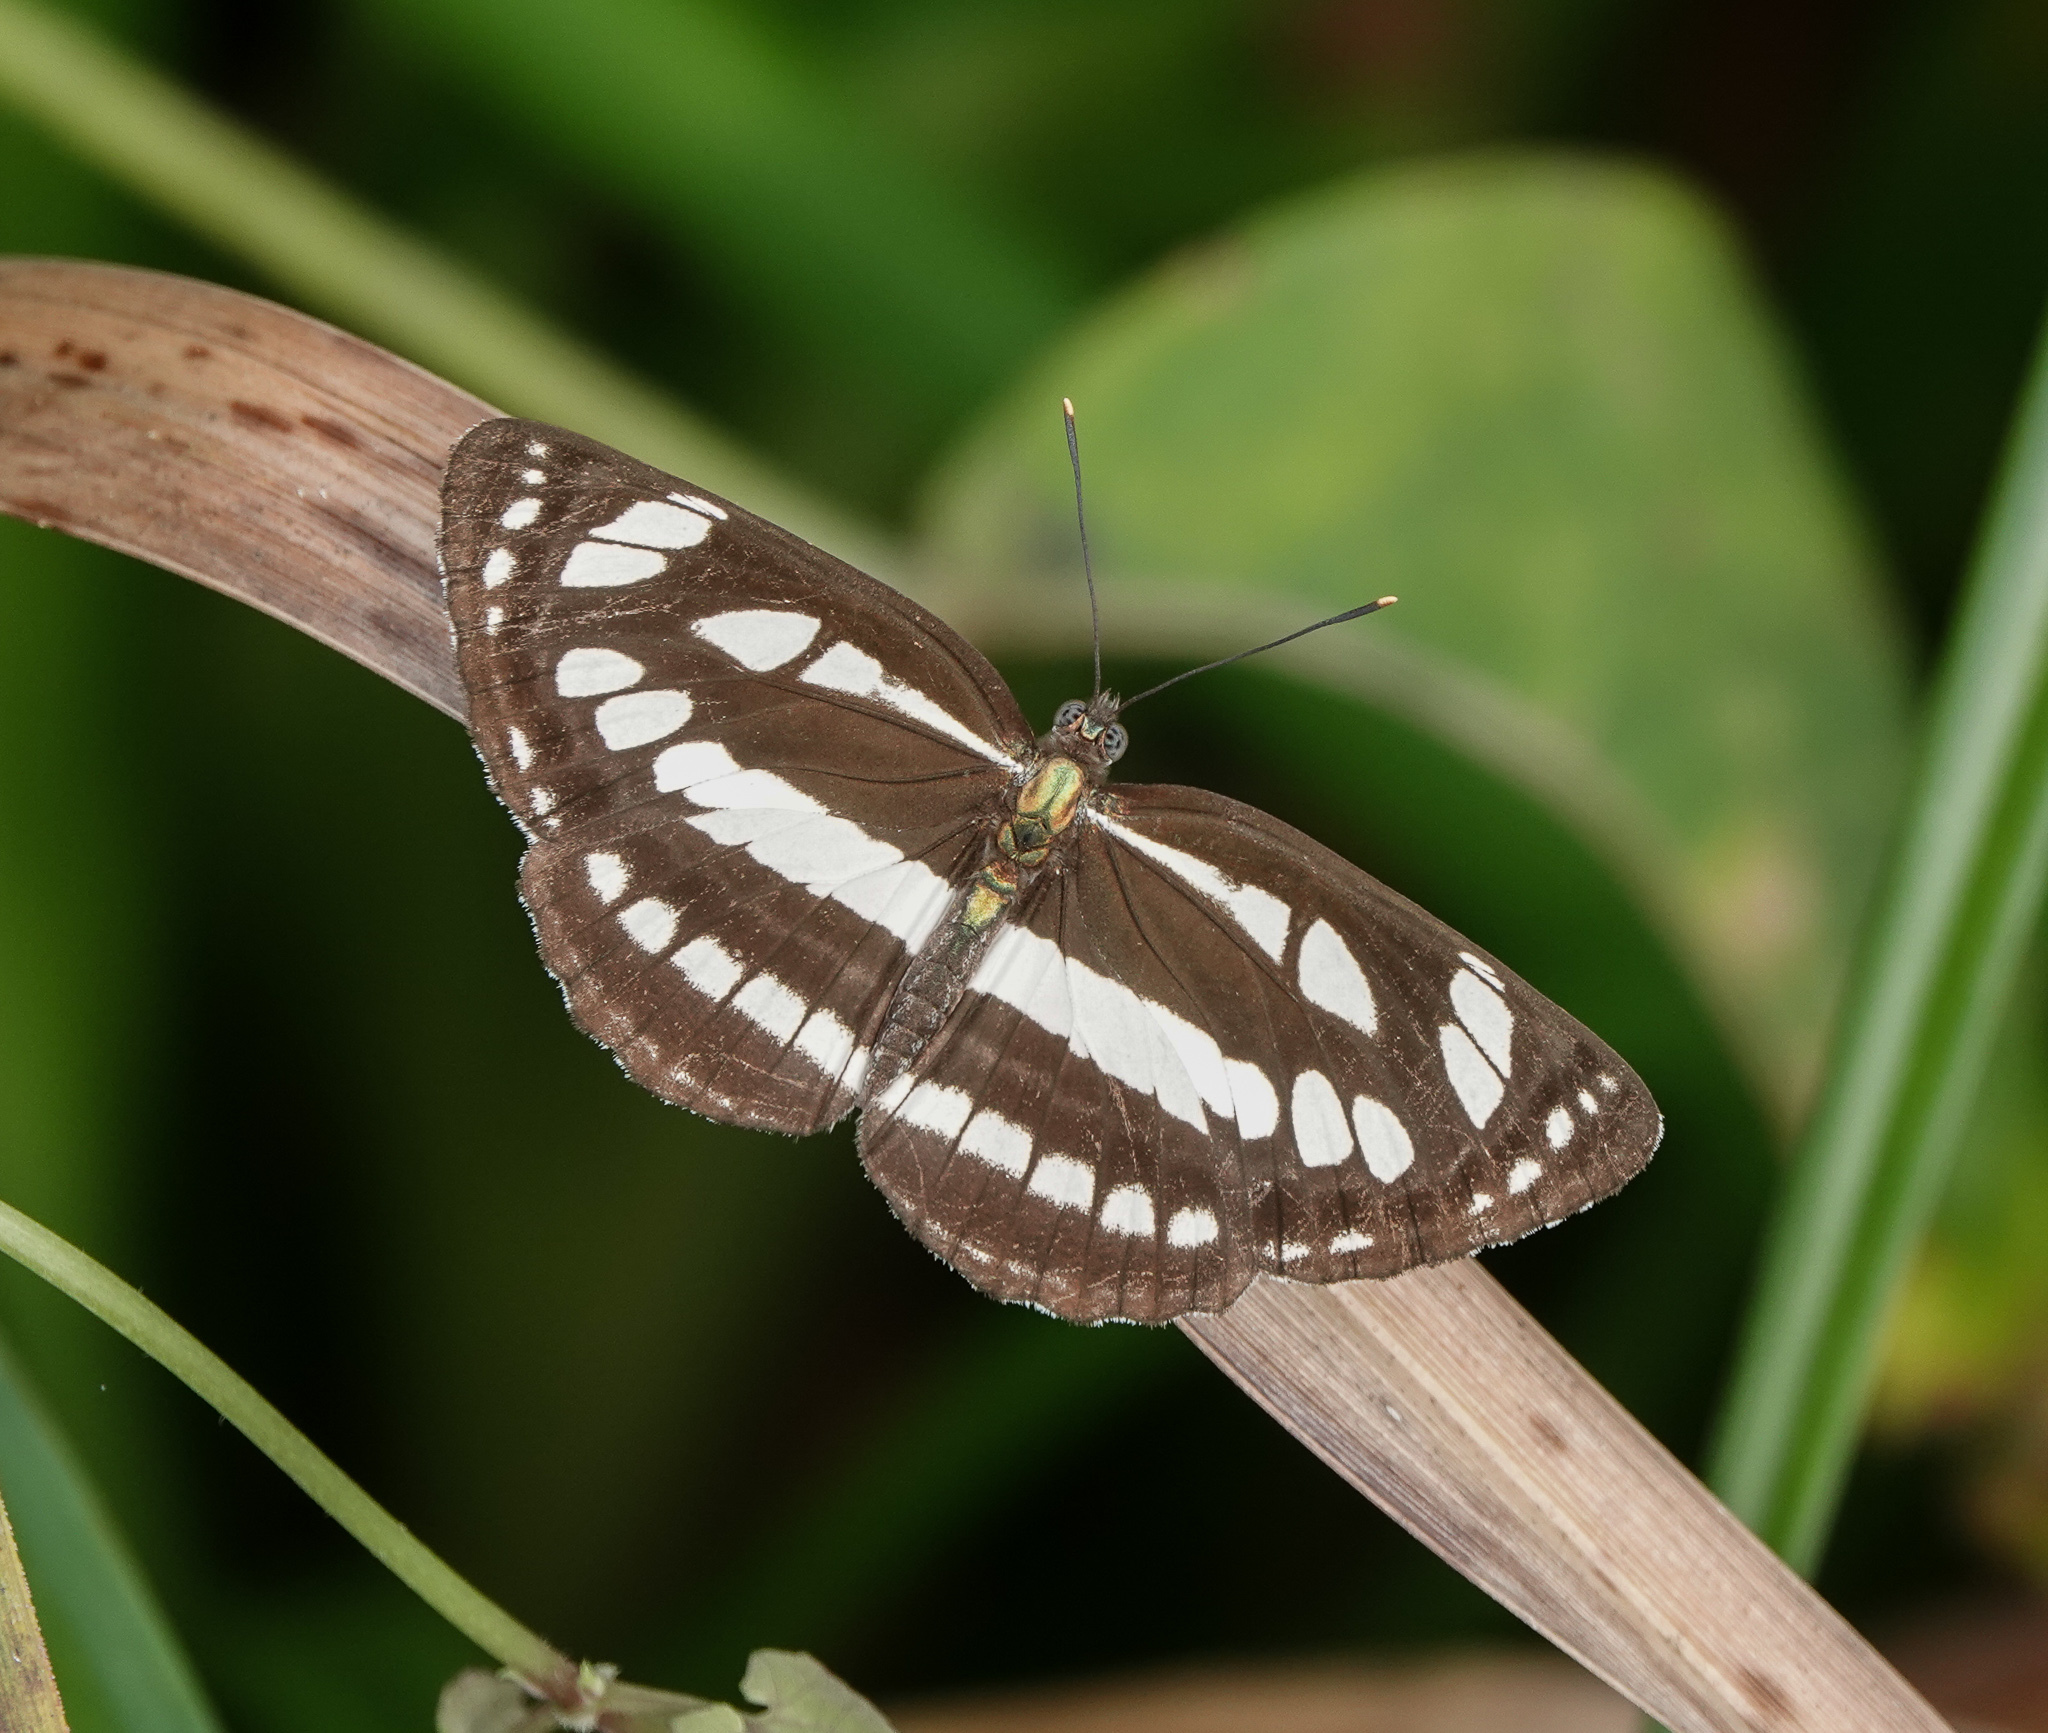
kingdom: Animalia
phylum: Arthropoda
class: Insecta
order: Lepidoptera
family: Nymphalidae
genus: Neptis
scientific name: Neptis hylas
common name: Common sailer
